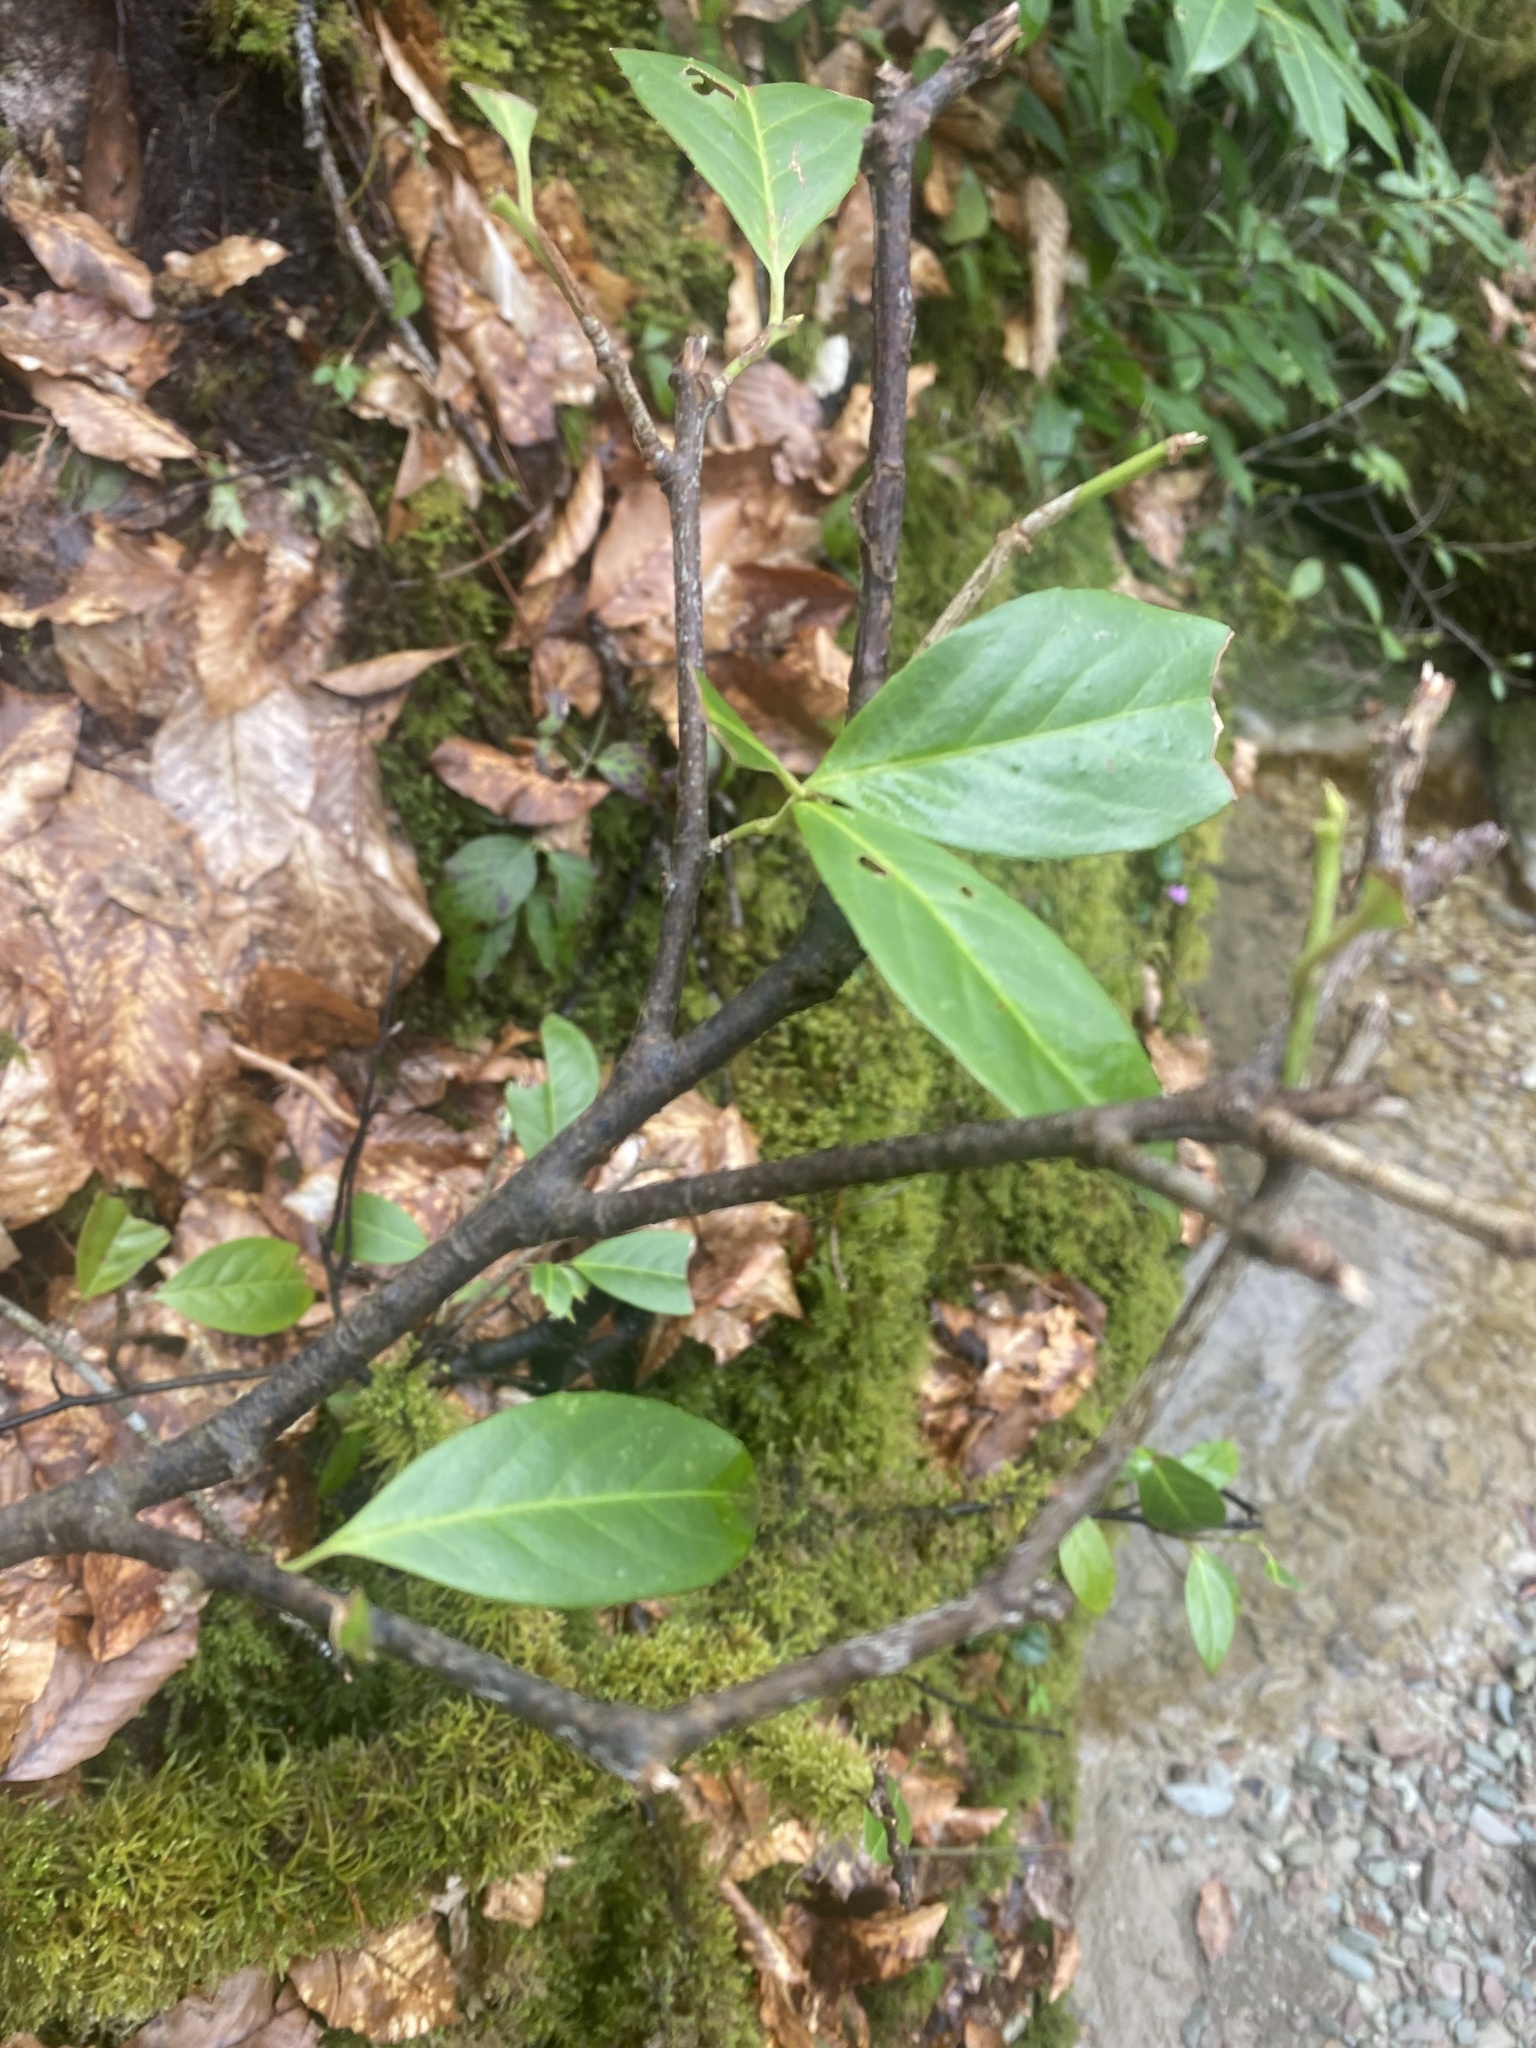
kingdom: Plantae
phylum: Tracheophyta
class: Magnoliopsida
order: Rosales
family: Rosaceae
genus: Prunus
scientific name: Prunus laurocerasus
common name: Cherry laurel
